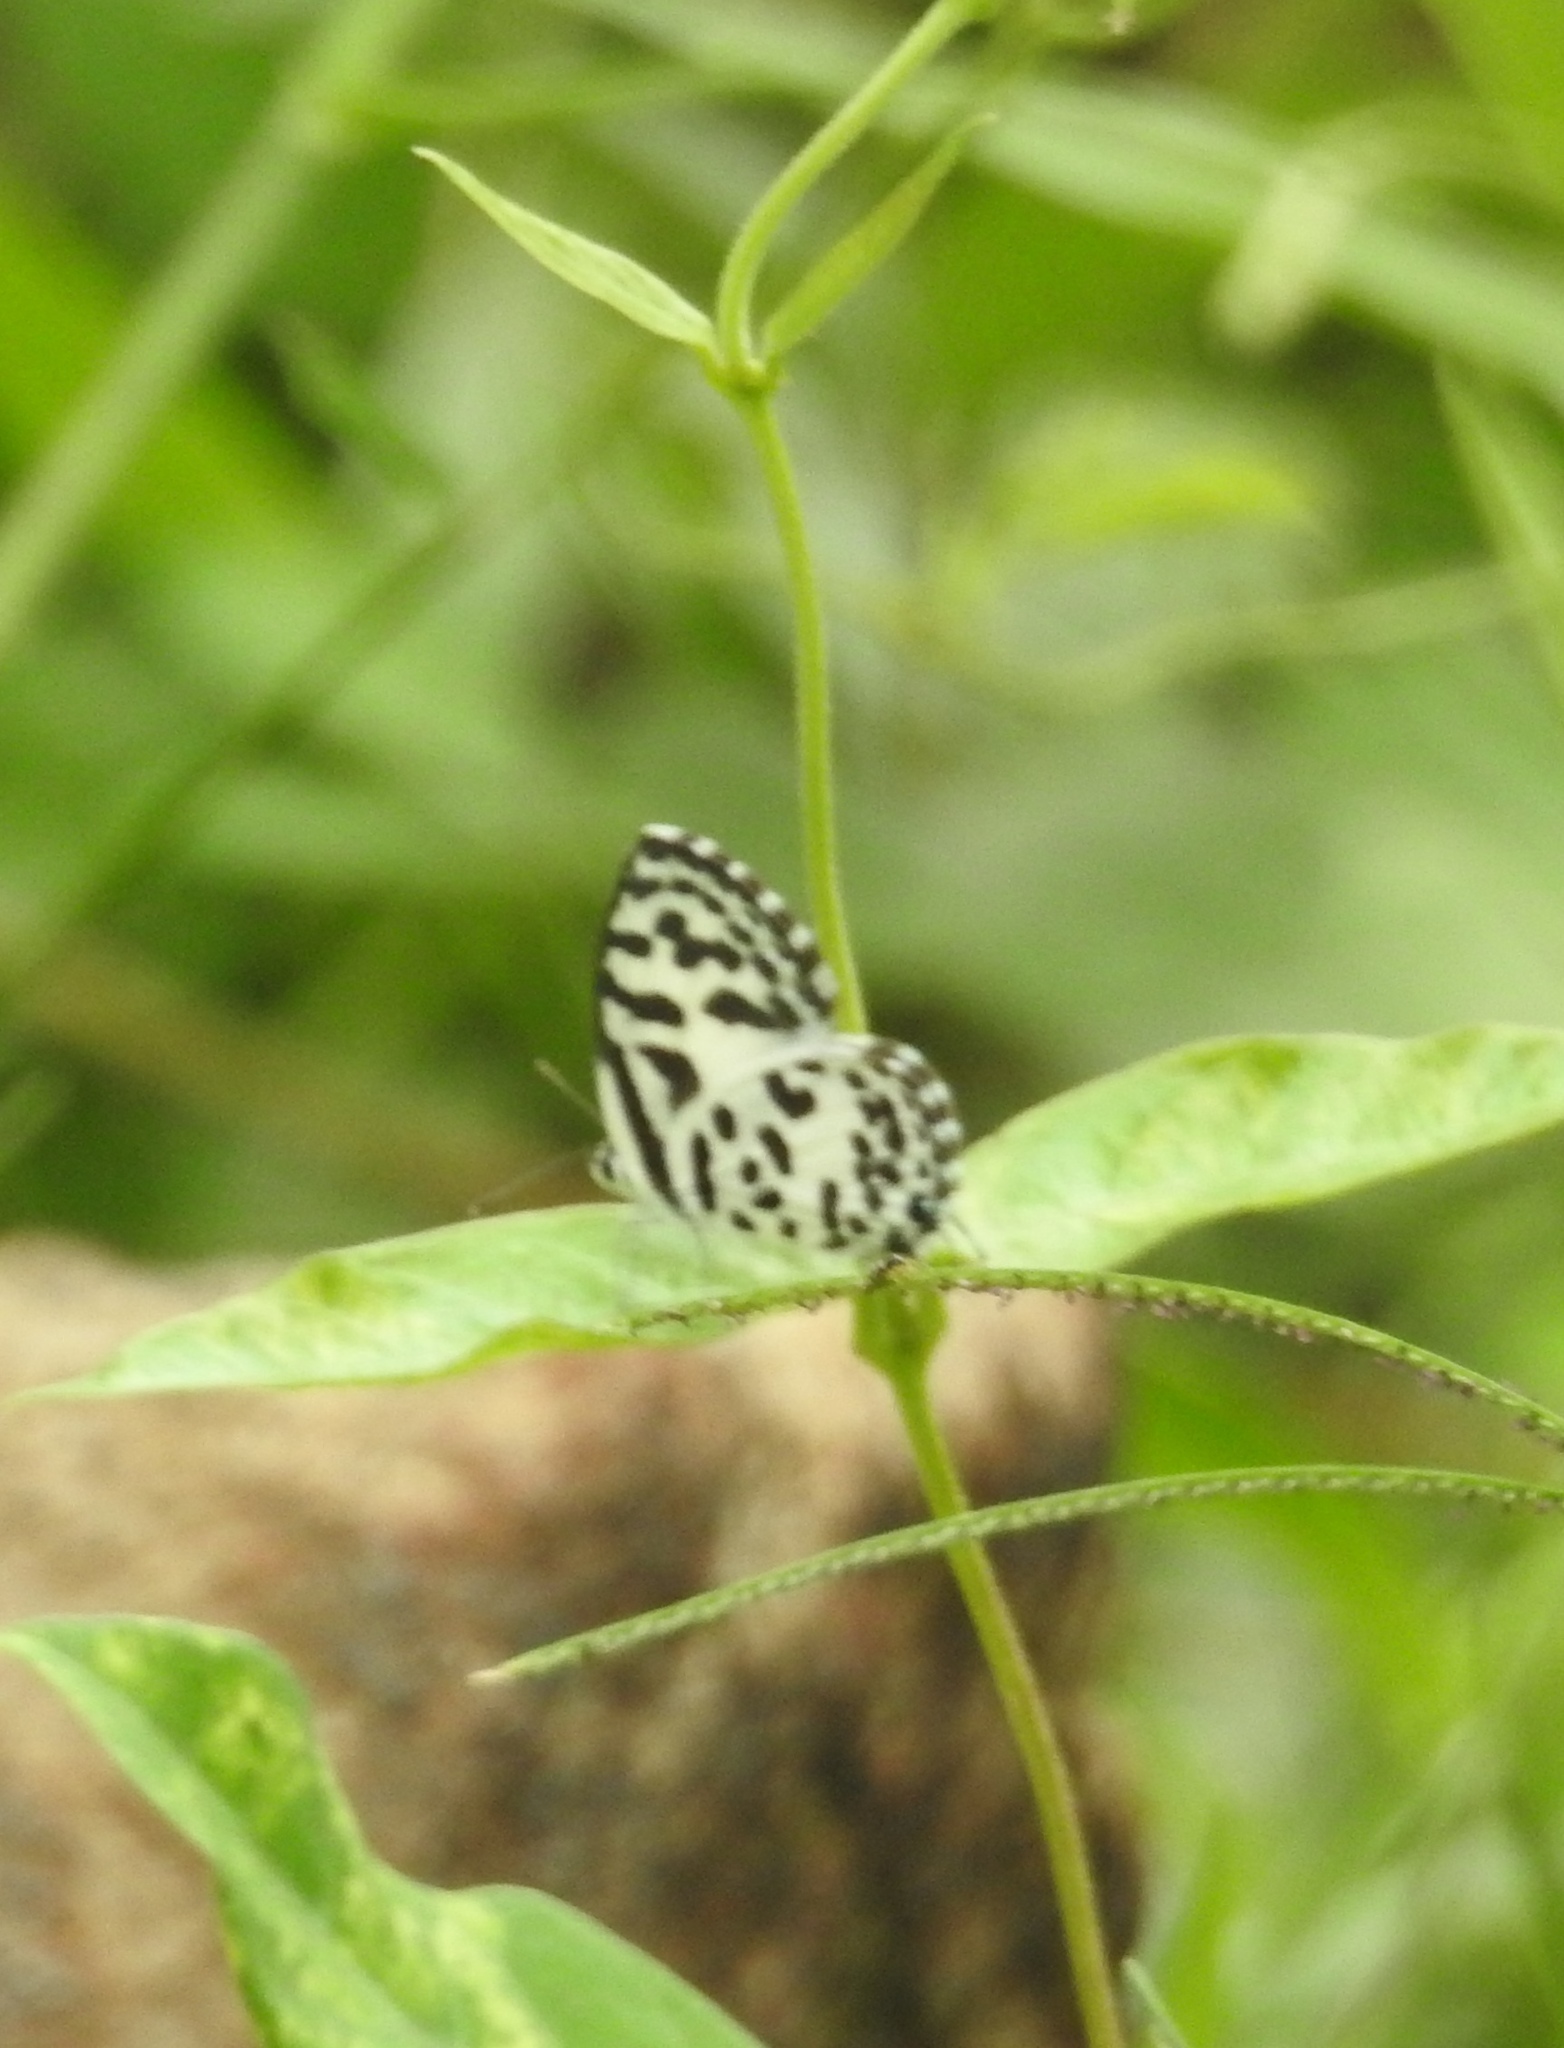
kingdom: Animalia
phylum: Arthropoda
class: Insecta
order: Lepidoptera
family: Lycaenidae
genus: Castalius
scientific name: Castalius rosimon
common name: Common pierrot
